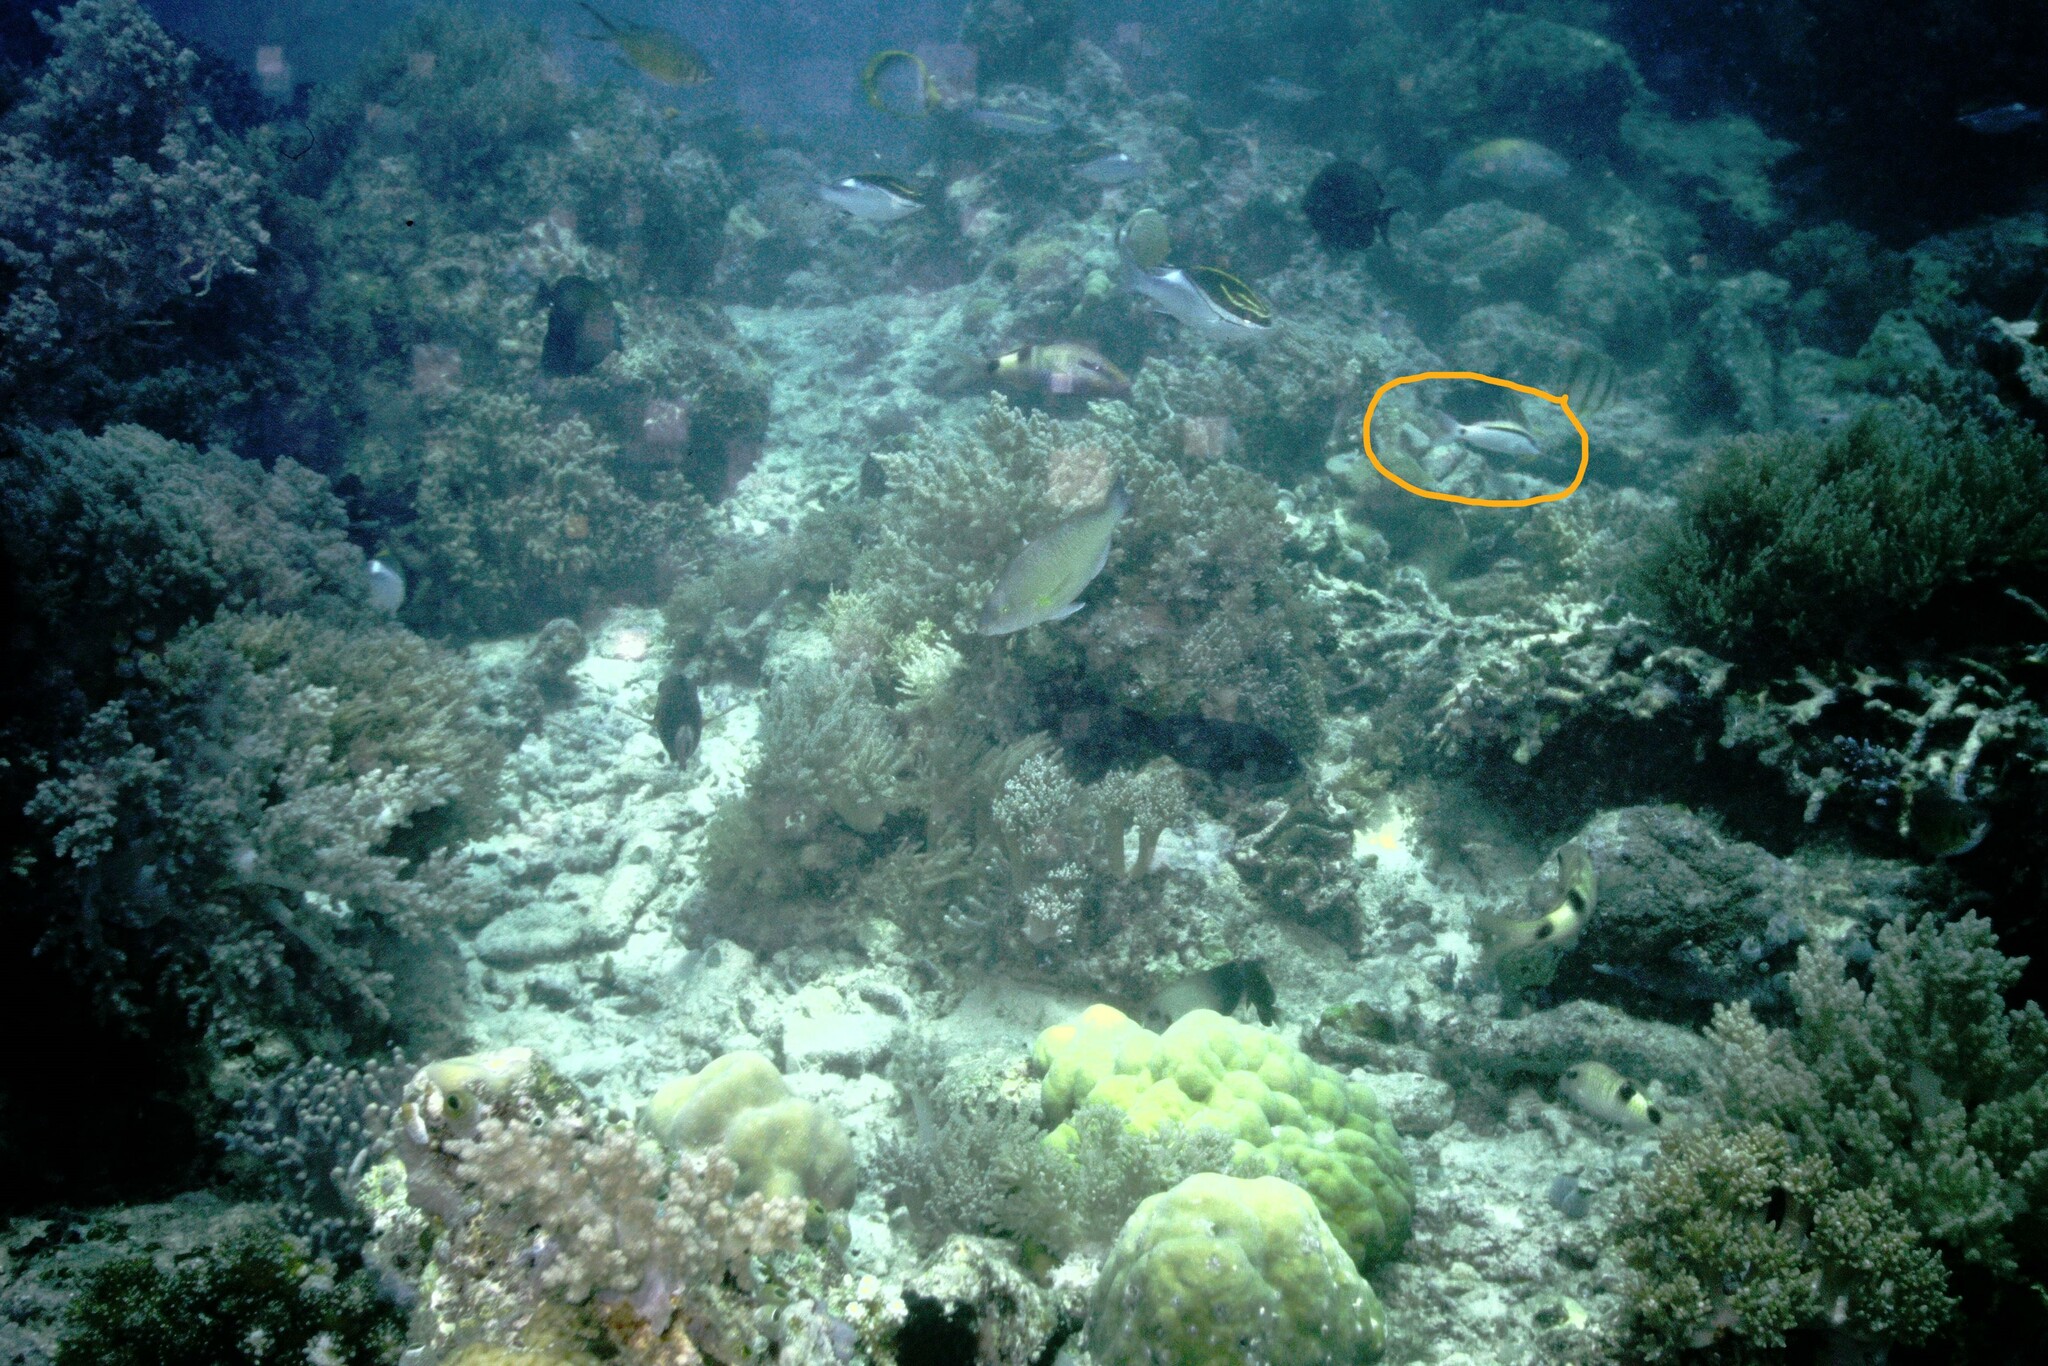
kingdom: Animalia
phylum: Chordata
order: Perciformes
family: Mullidae
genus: Parupeneus
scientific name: Parupeneus barberinus
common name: Dash-and-dot goatfish
